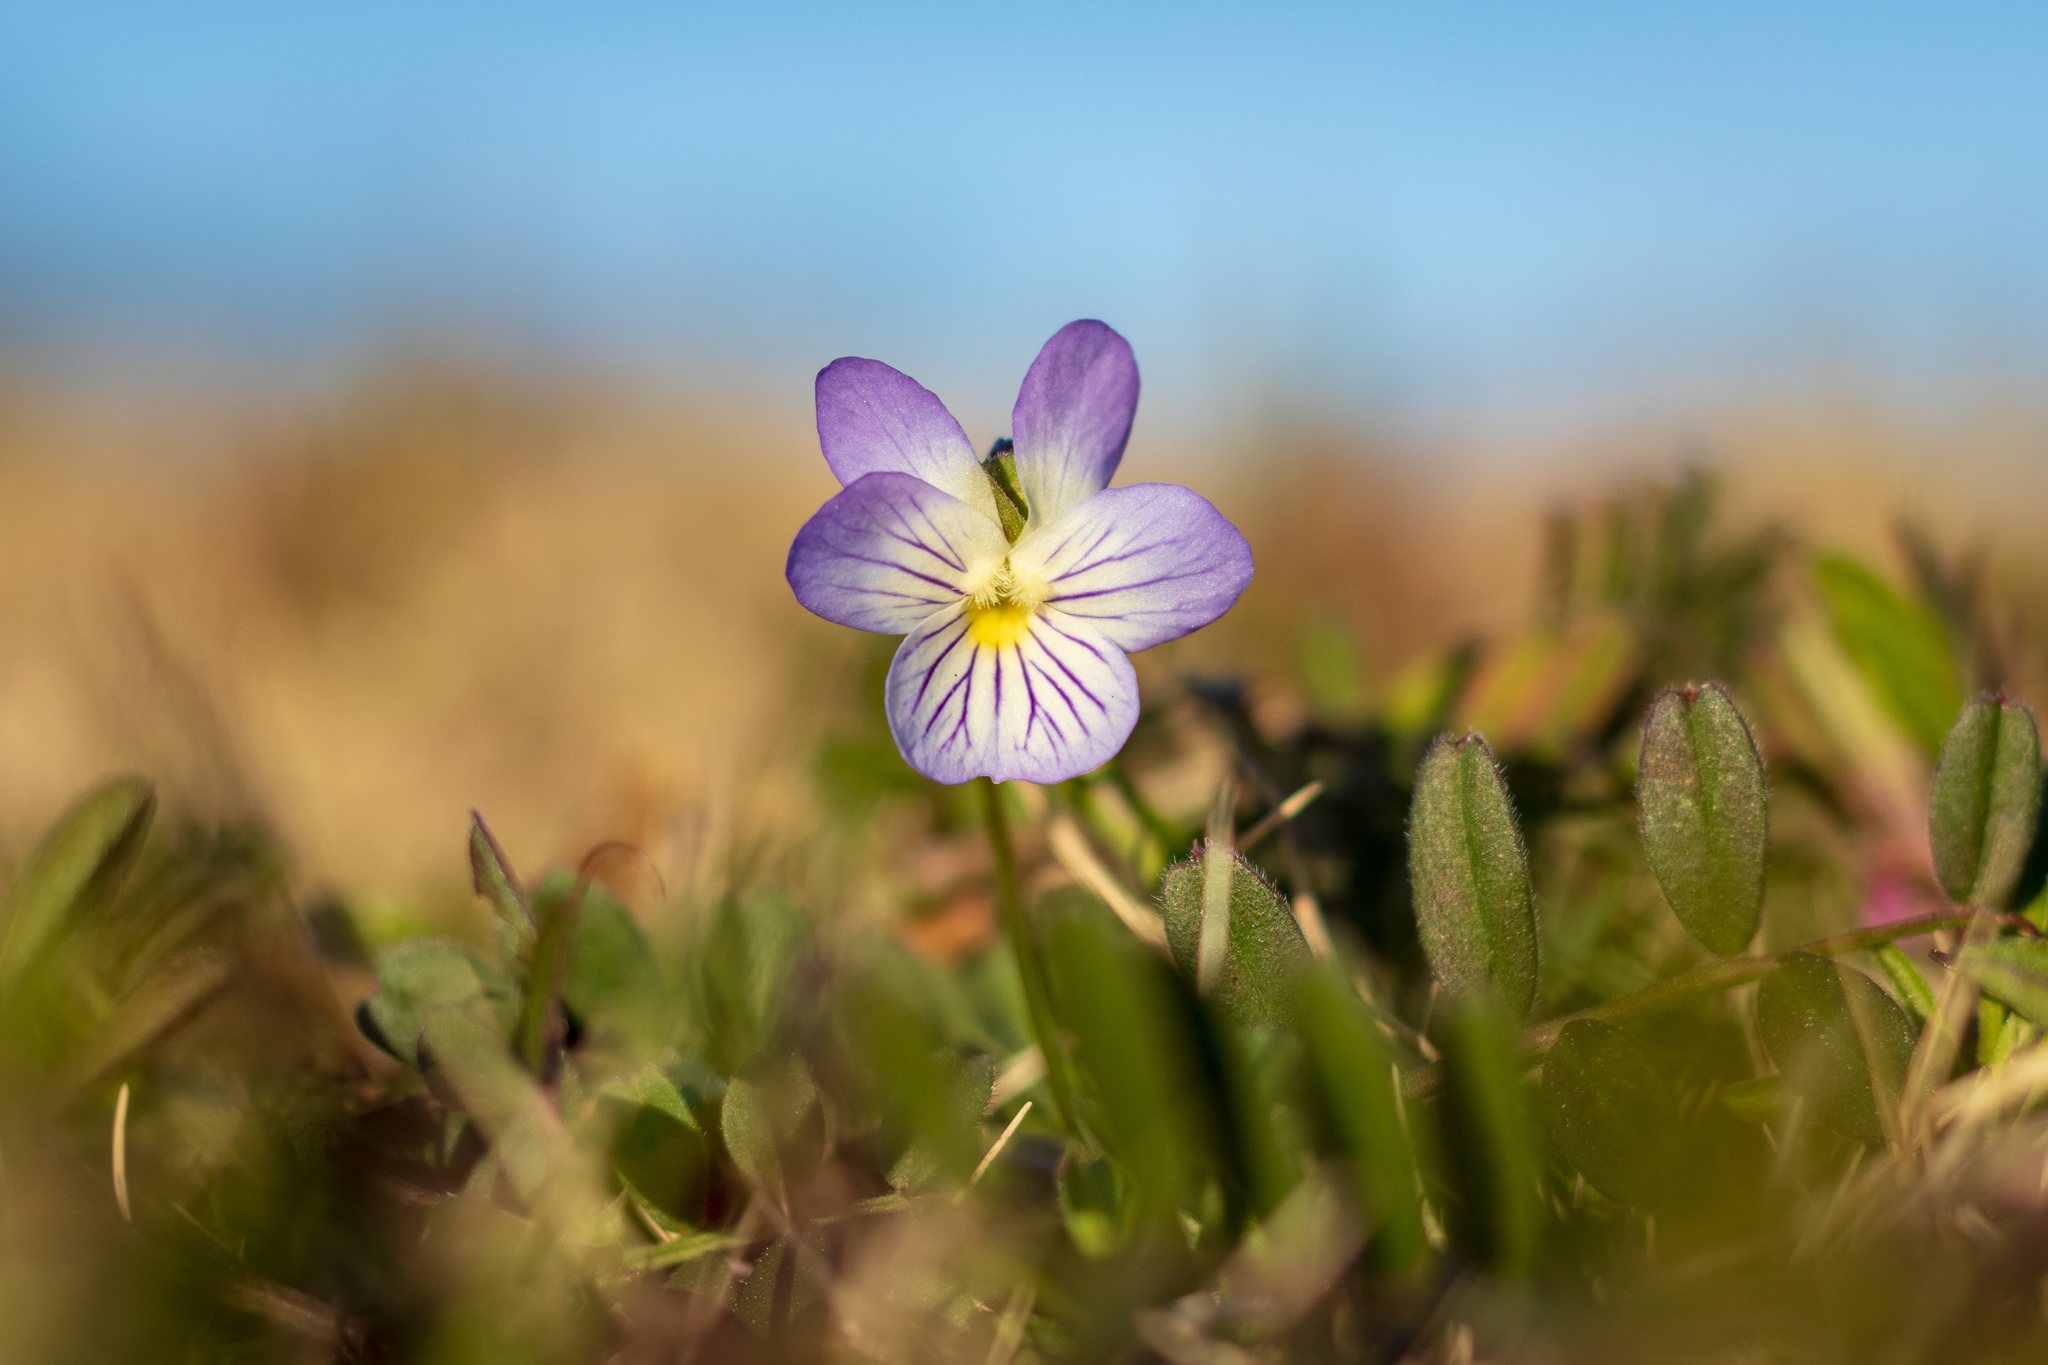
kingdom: Plantae
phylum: Tracheophyta
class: Magnoliopsida
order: Malpighiales
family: Violaceae
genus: Viola
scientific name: Viola rafinesquei
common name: American field pansy
